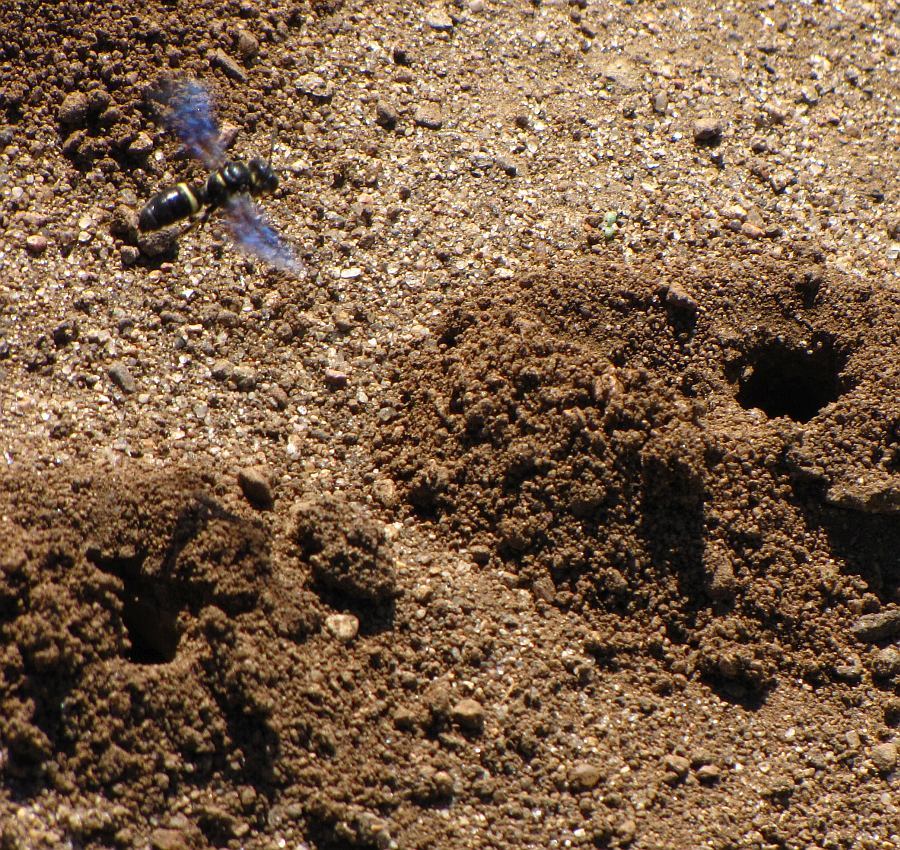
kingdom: Animalia
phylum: Arthropoda
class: Insecta
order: Hymenoptera
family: Crabronidae
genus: Cerceris
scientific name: Cerceris fumipennis
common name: Smokey-winged beetle bandit wasp
